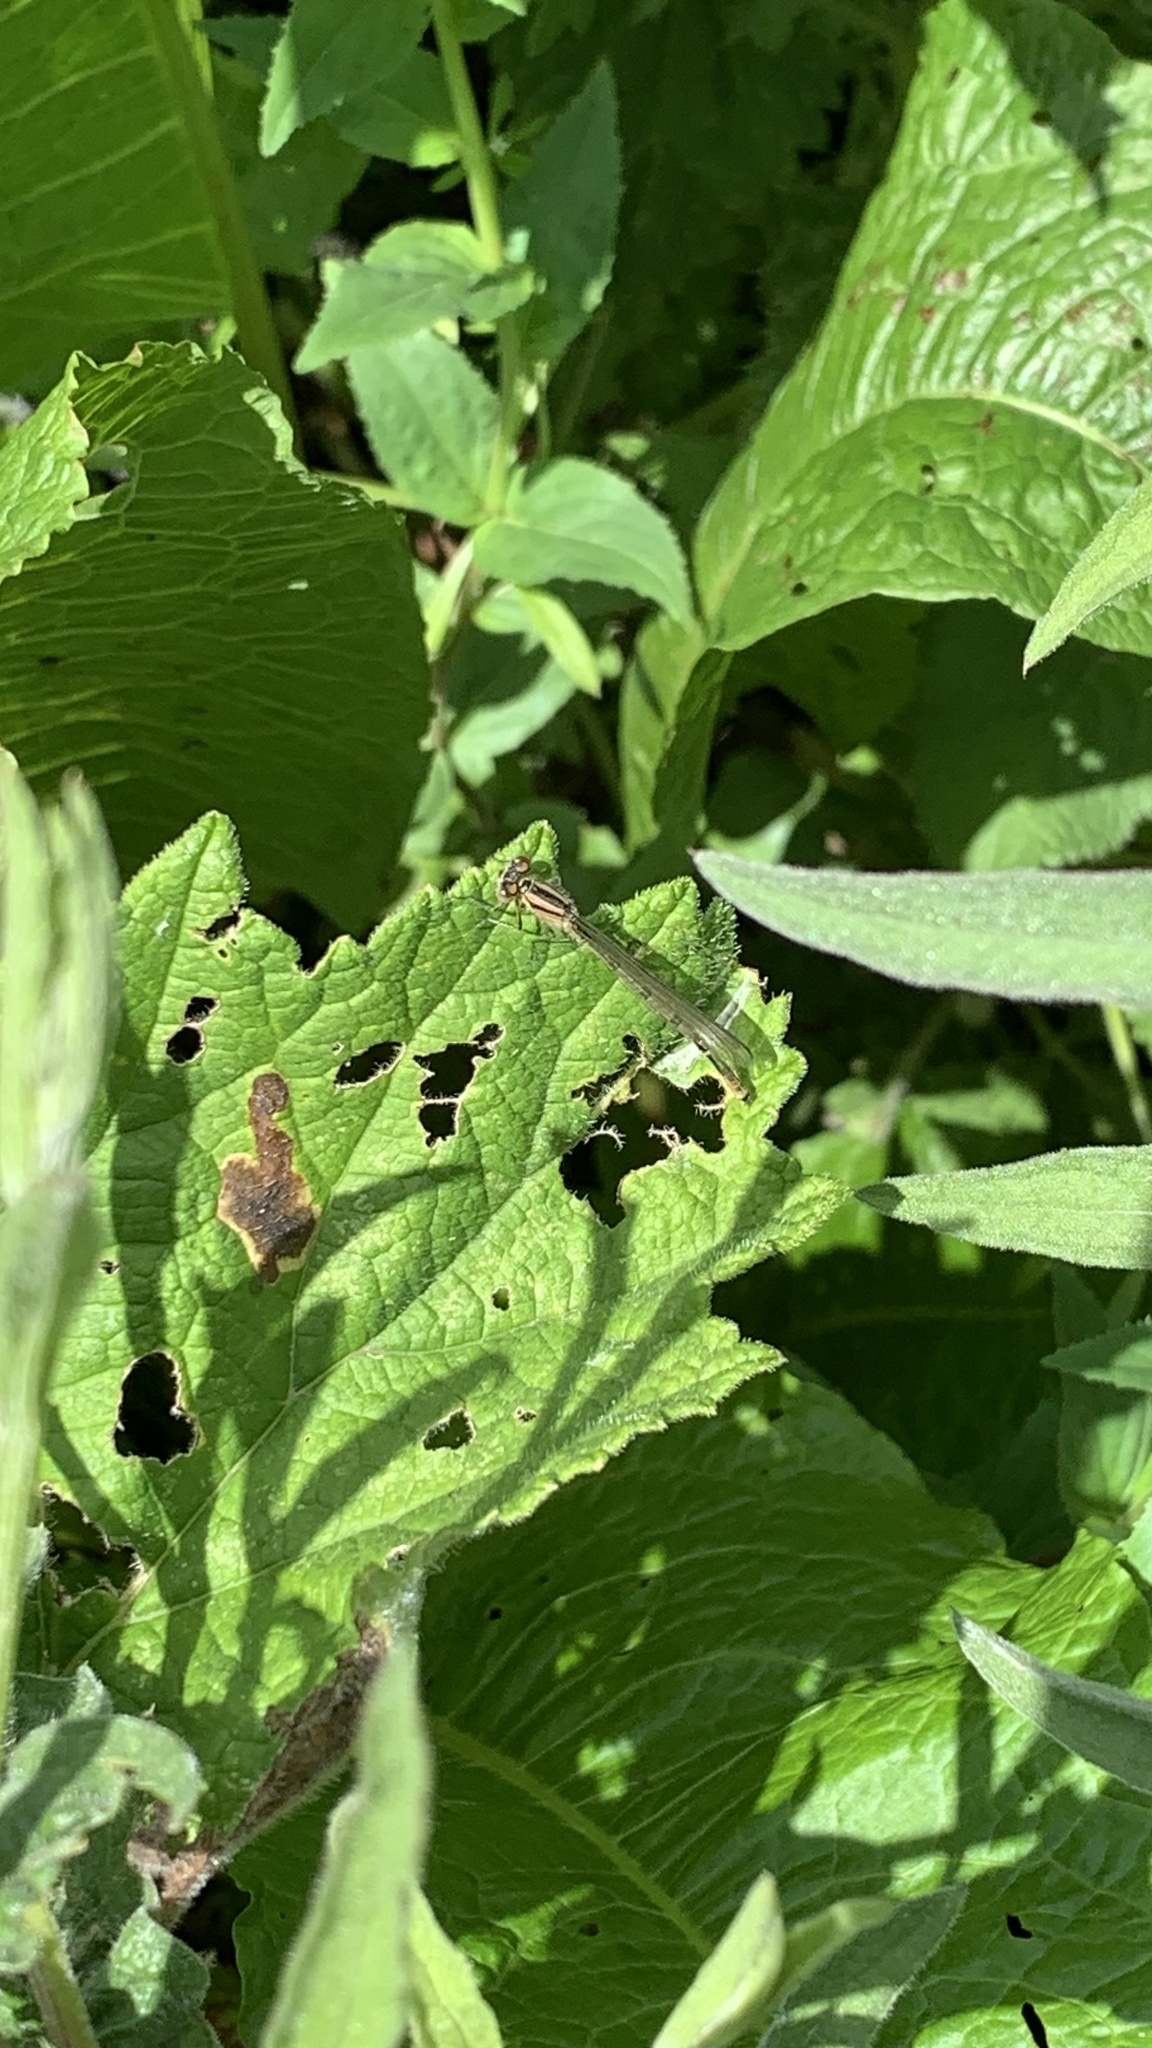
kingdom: Animalia
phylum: Arthropoda
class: Insecta
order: Odonata
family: Coenagrionidae
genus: Enallagma
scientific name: Enallagma cyathigerum
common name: Common blue damselfly
